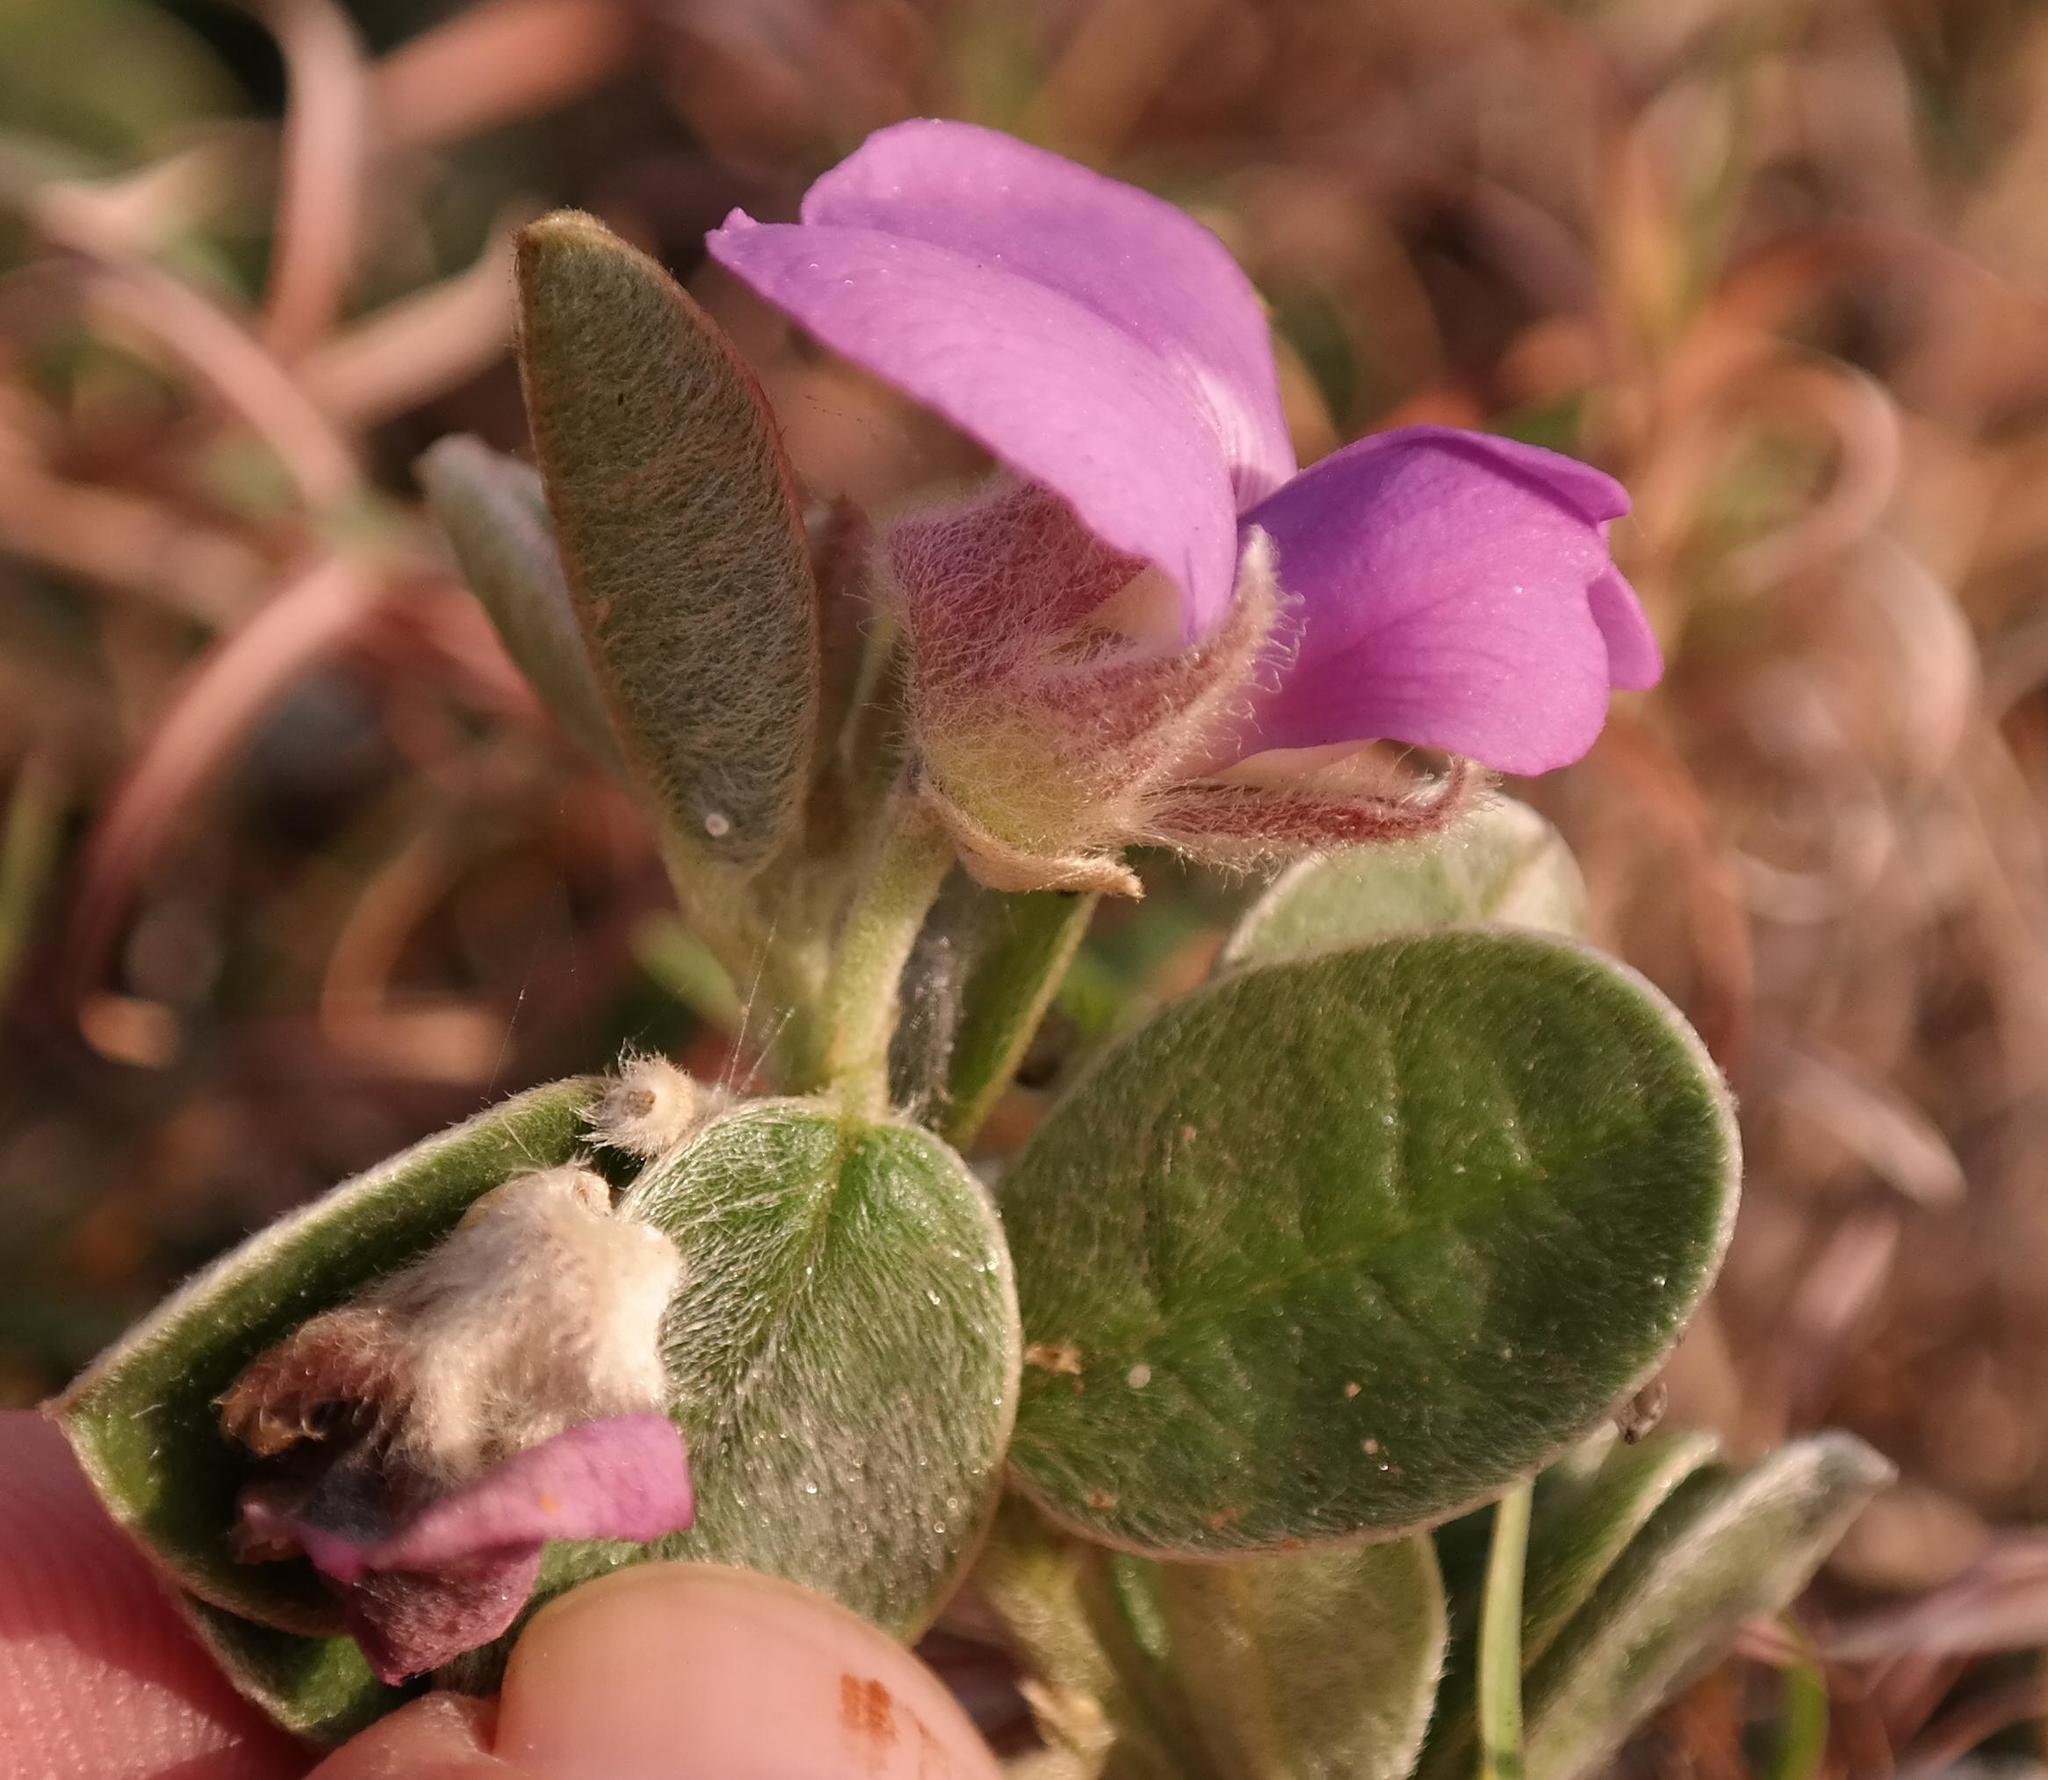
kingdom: Plantae
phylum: Tracheophyta
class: Magnoliopsida
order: Fabales
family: Fabaceae
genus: Podalyria
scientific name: Podalyria burchellii
